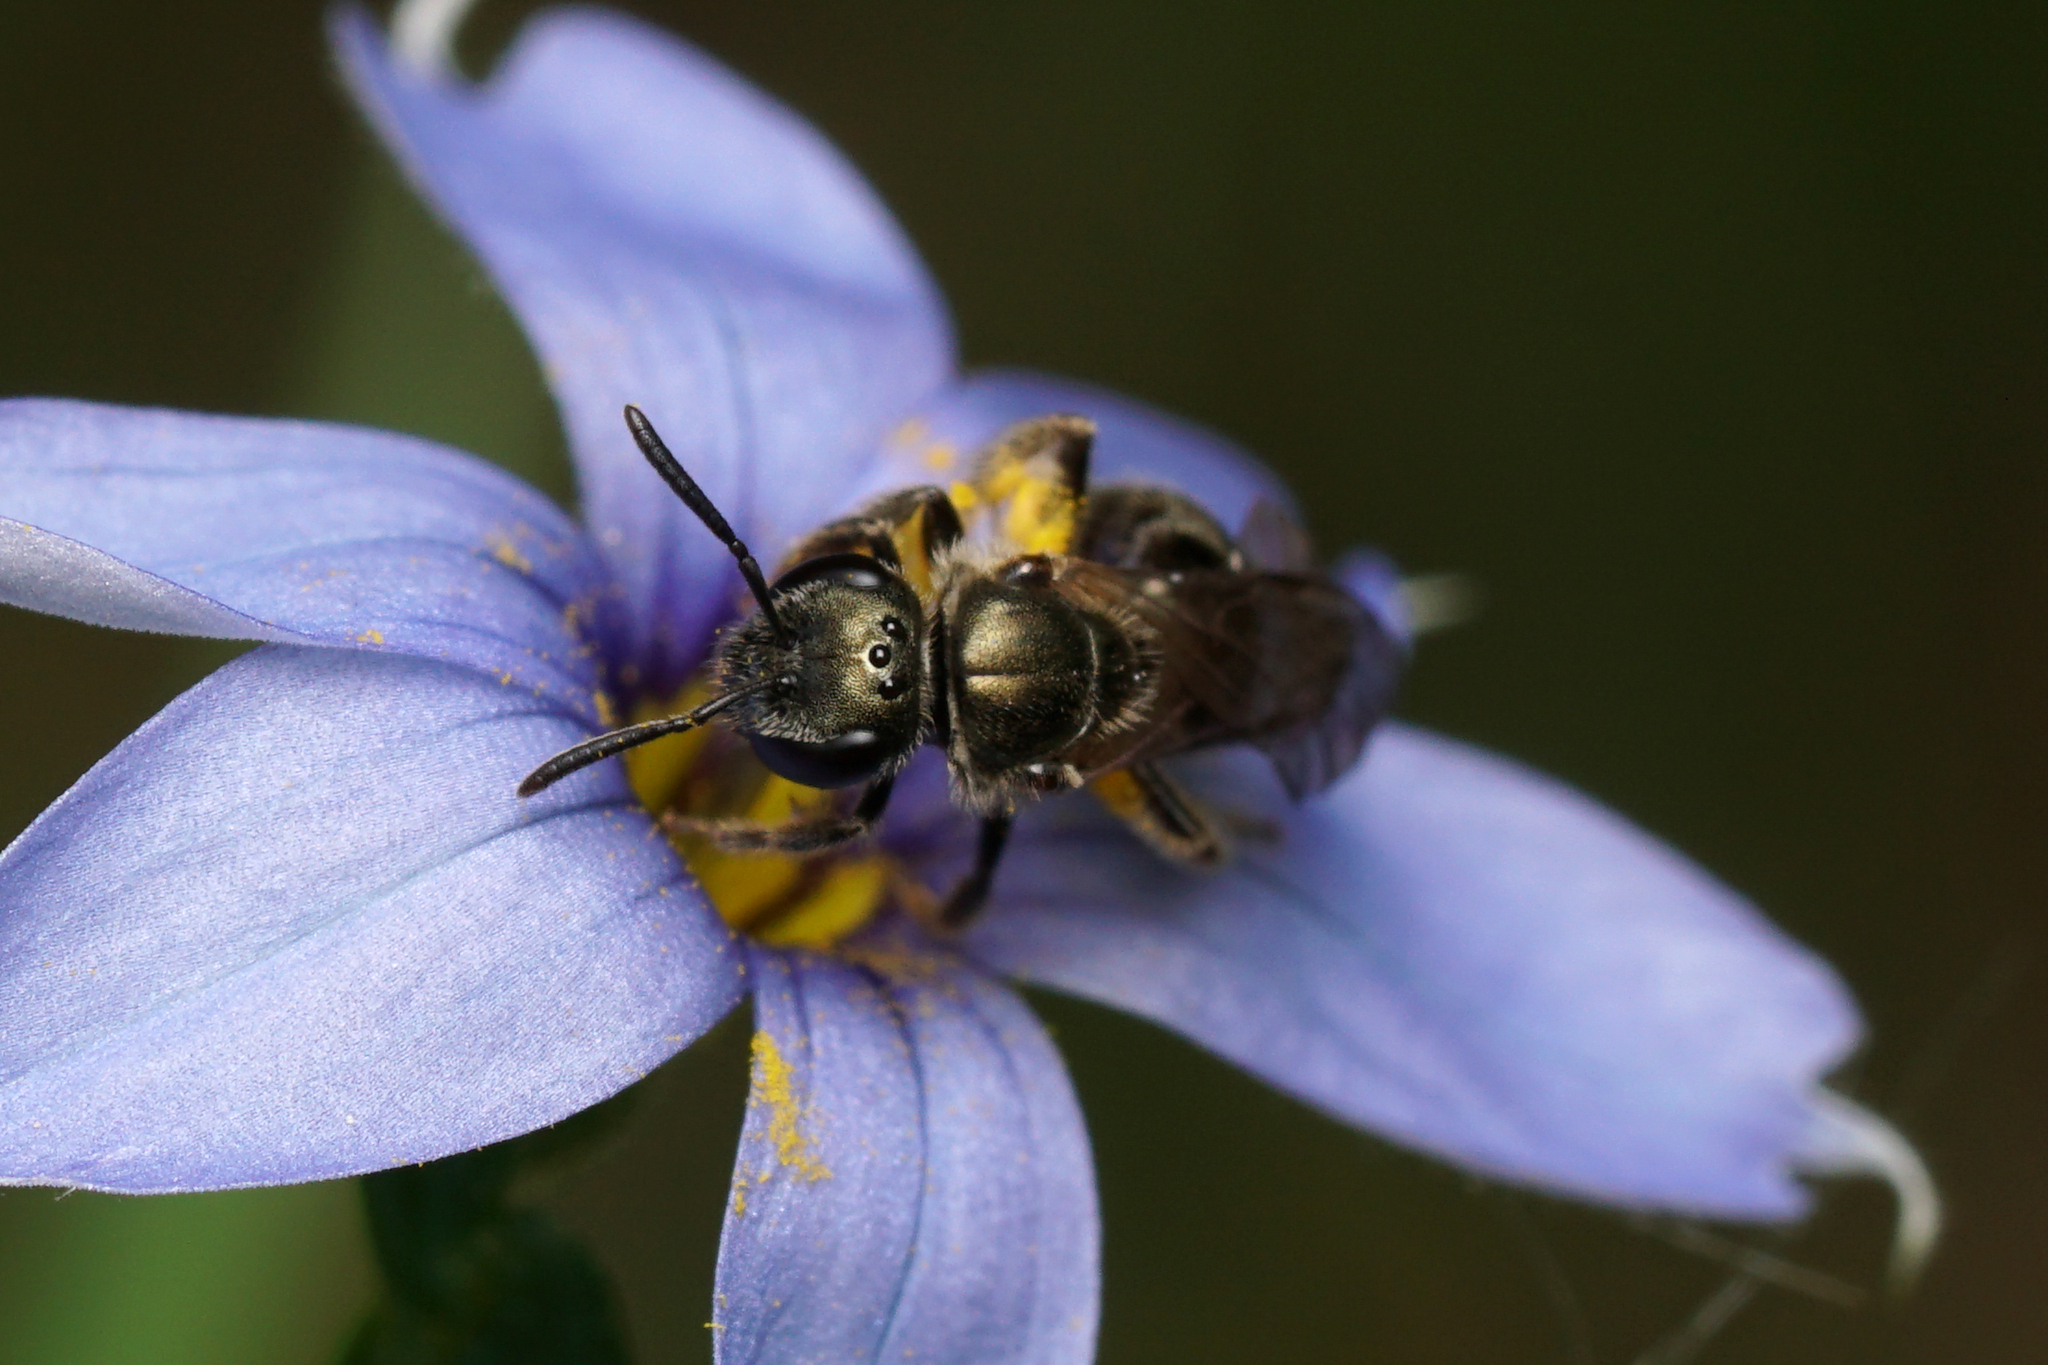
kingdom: Animalia
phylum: Arthropoda
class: Insecta
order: Hymenoptera
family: Halictidae
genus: Dialictus
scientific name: Dialictus
